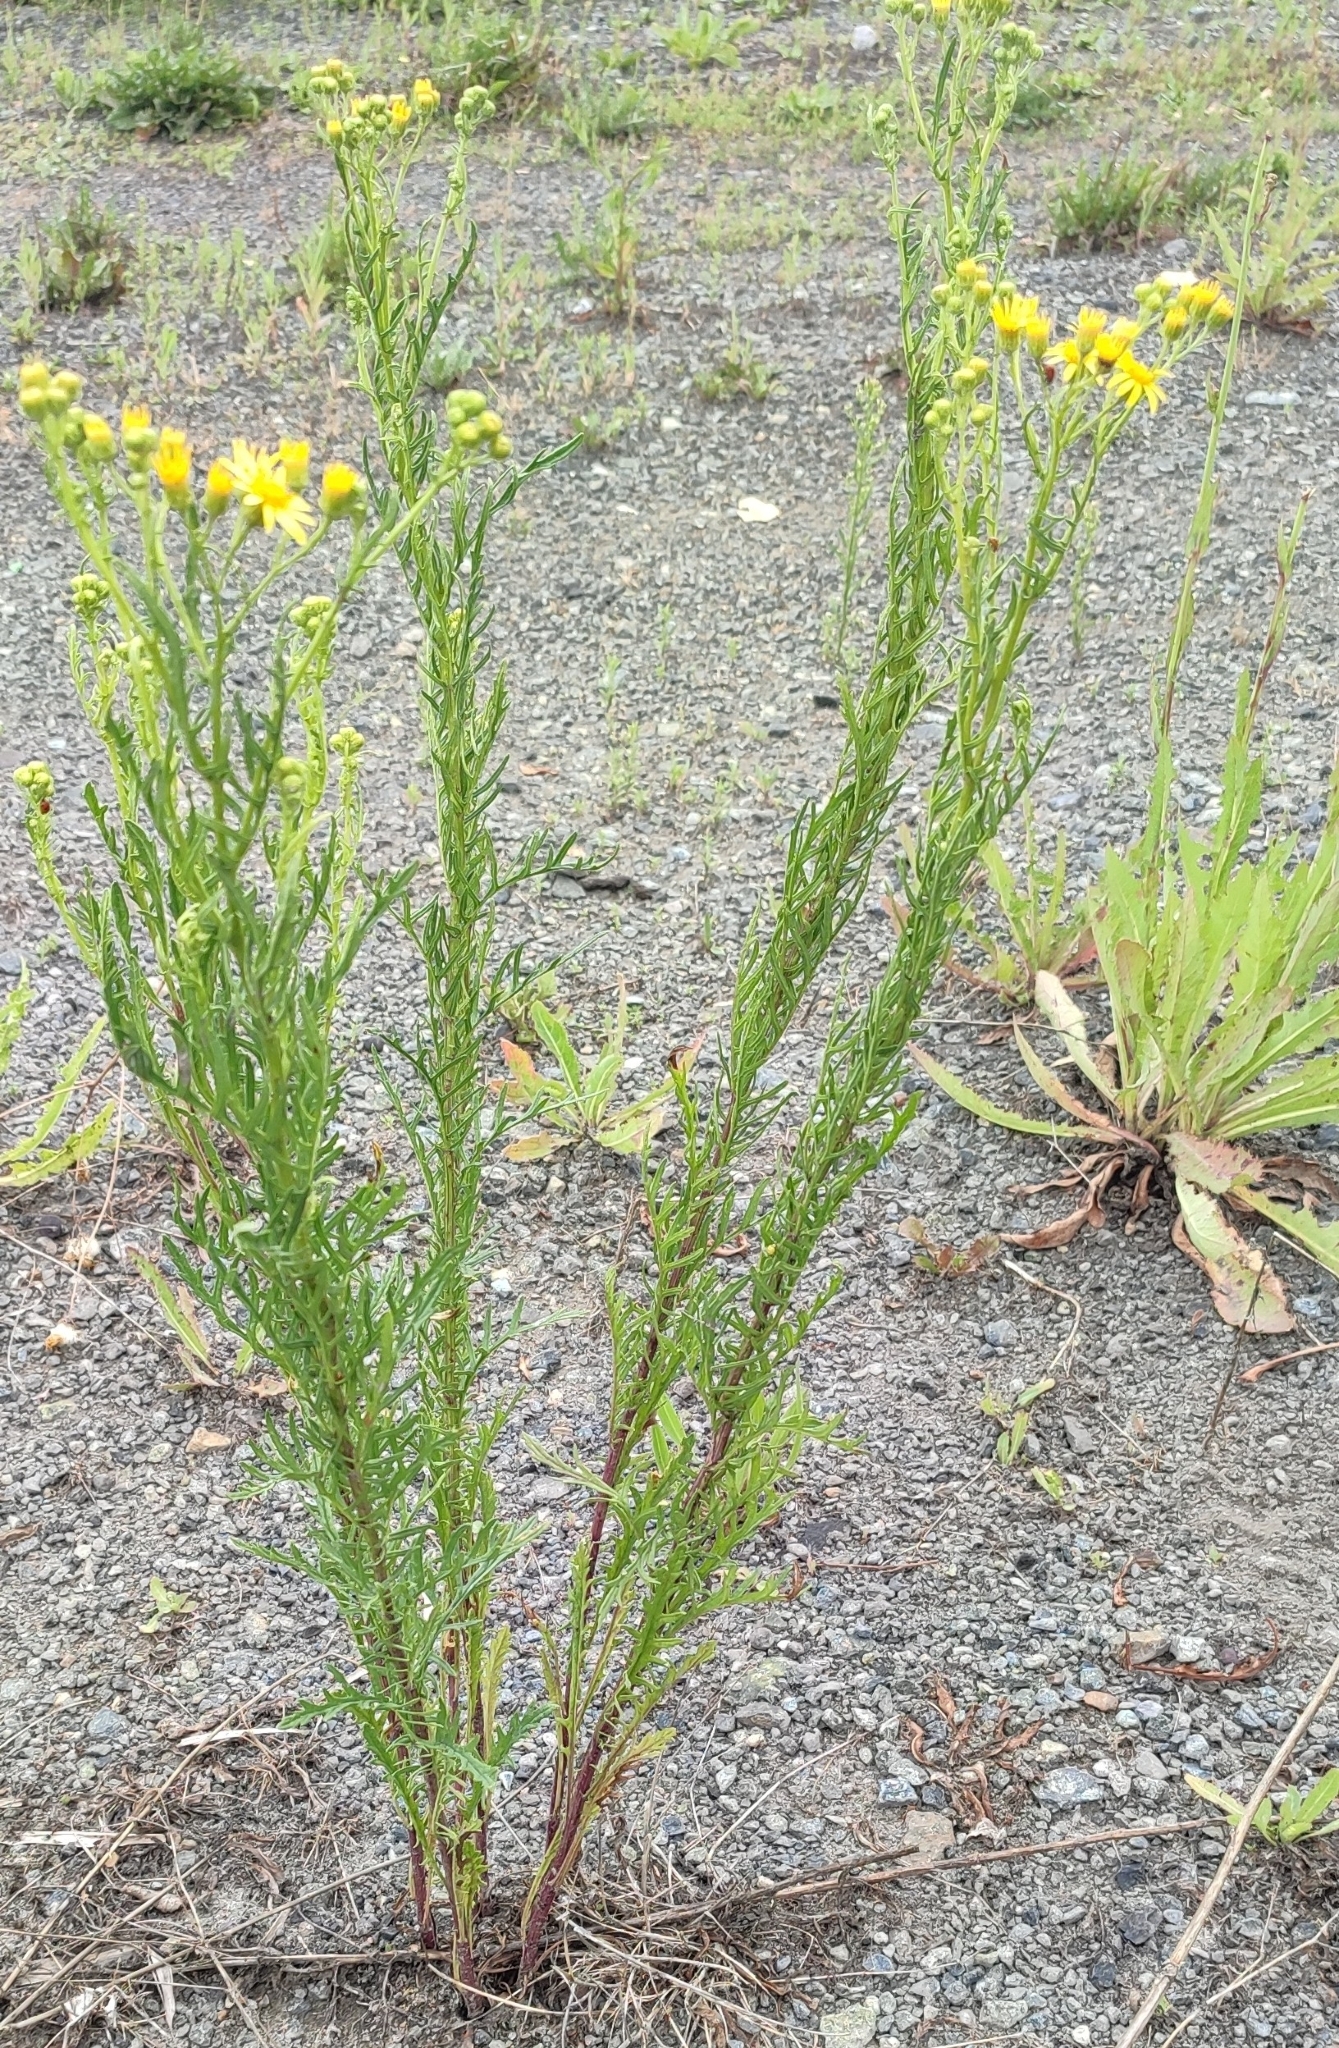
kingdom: Plantae
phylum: Tracheophyta
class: Magnoliopsida
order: Asterales
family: Asteraceae
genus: Jacobaea
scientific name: Jacobaea erucifolia
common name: Hoary ragwort
